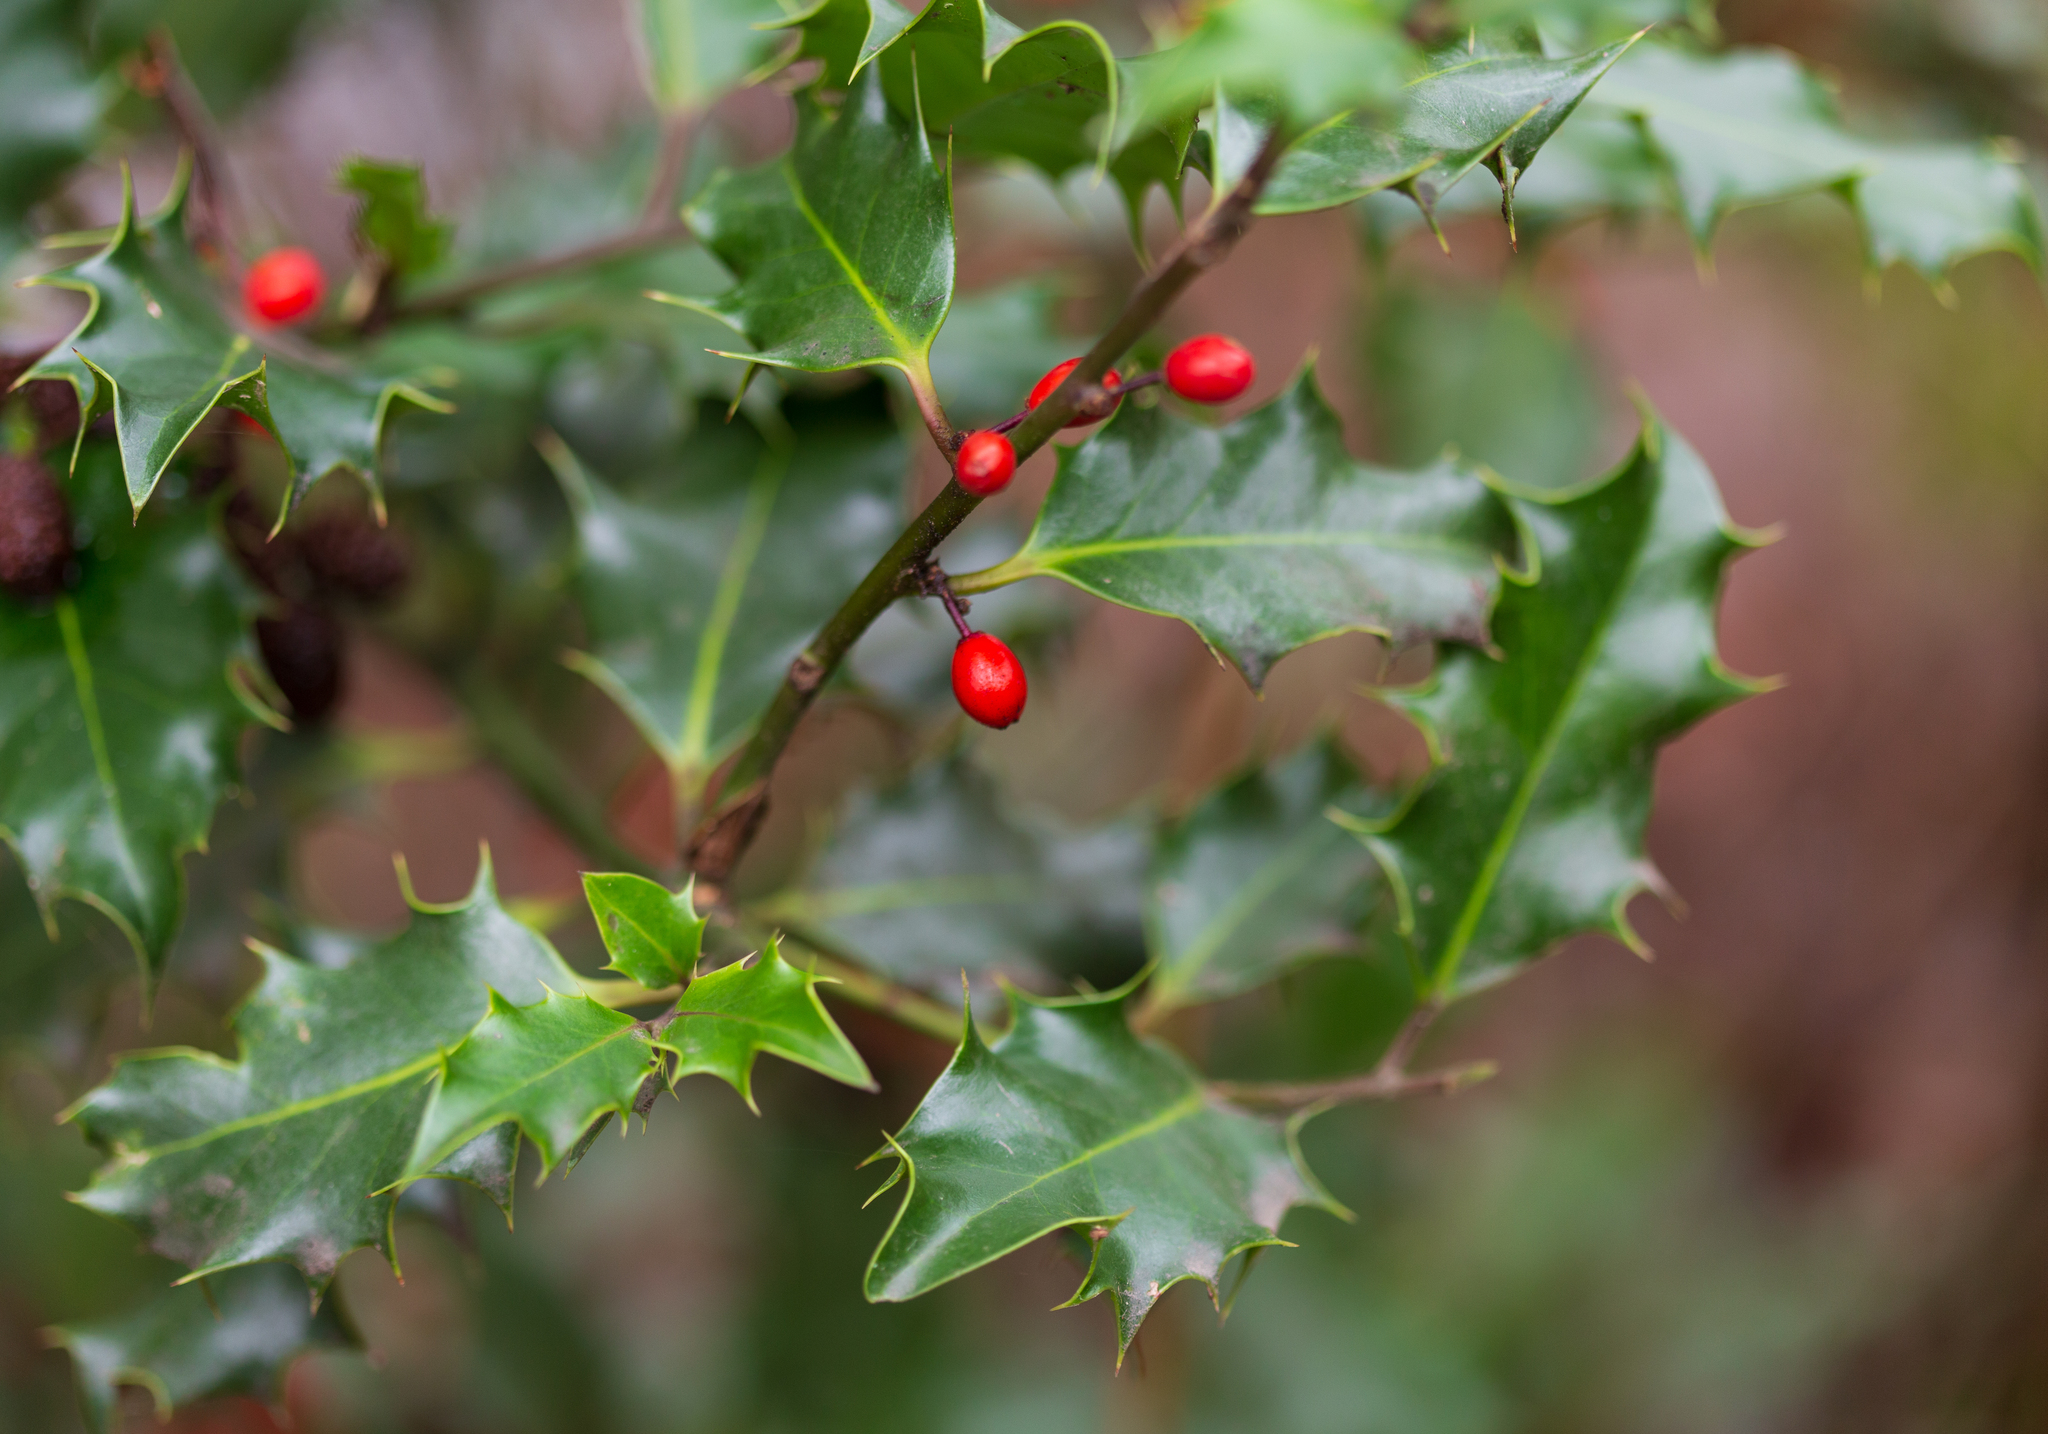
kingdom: Plantae
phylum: Tracheophyta
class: Magnoliopsida
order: Aquifoliales
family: Aquifoliaceae
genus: Ilex
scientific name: Ilex aquifolium
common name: English holly
